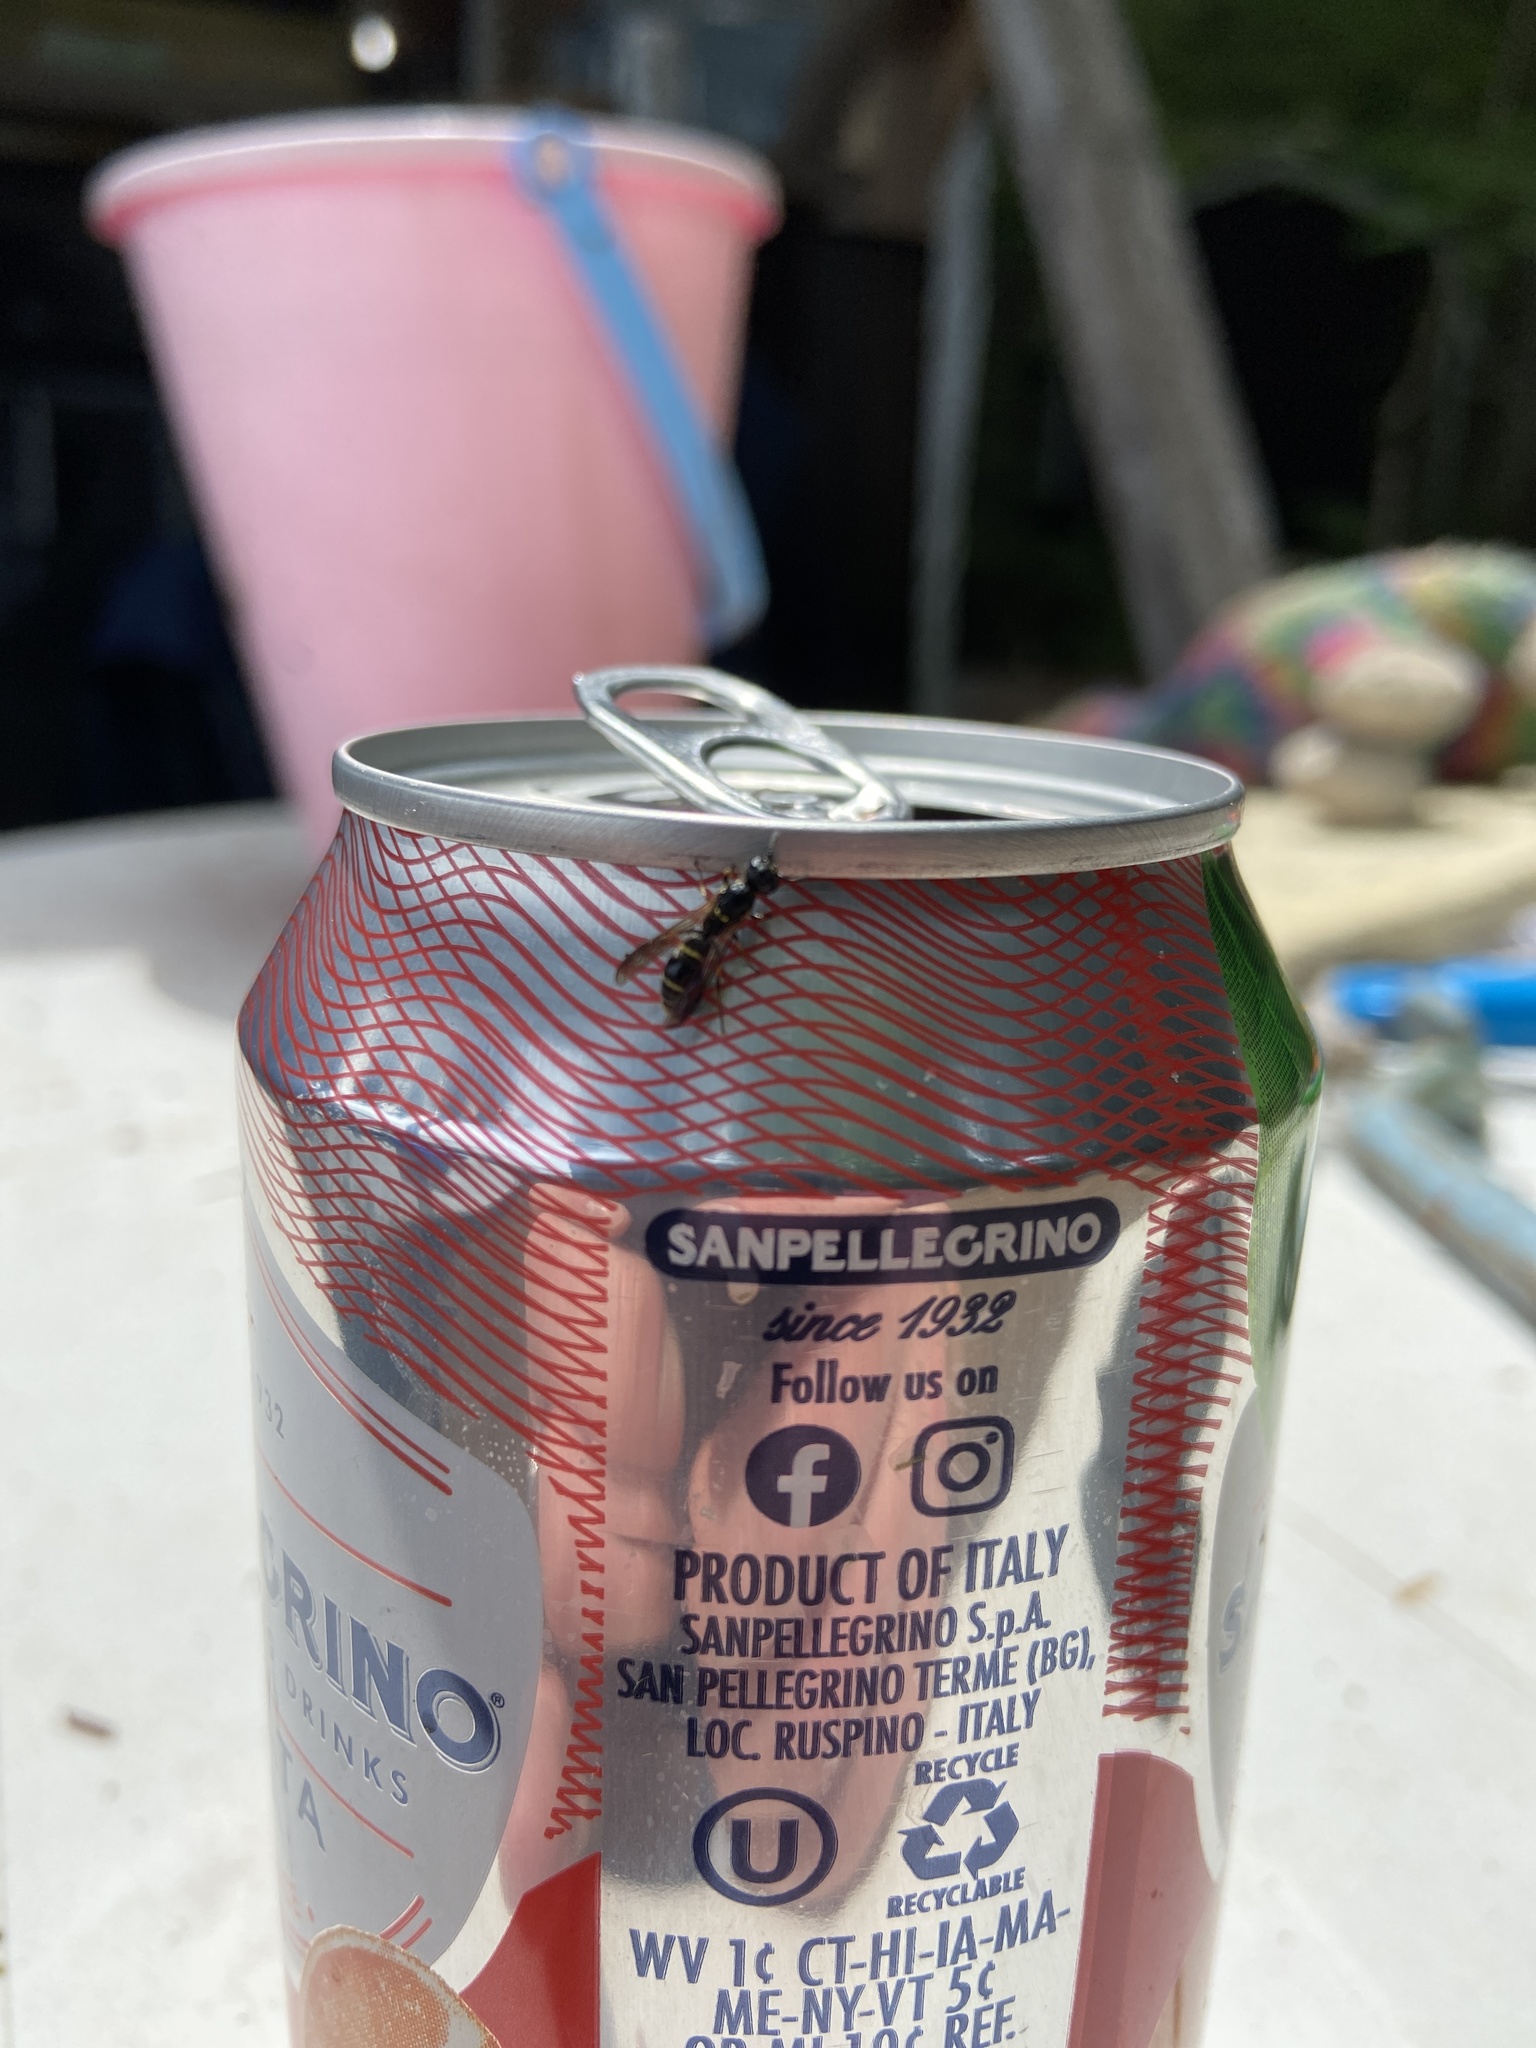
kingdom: Animalia
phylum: Arthropoda
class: Insecta
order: Hymenoptera
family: Eumenidae
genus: Symmorphus
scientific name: Symmorphus
